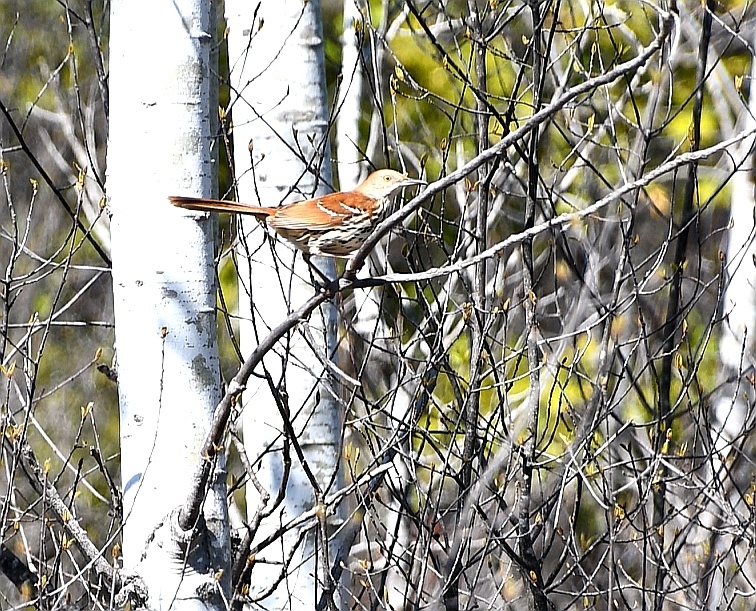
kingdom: Animalia
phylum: Chordata
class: Aves
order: Passeriformes
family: Mimidae
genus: Toxostoma
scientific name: Toxostoma rufum
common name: Brown thrasher
